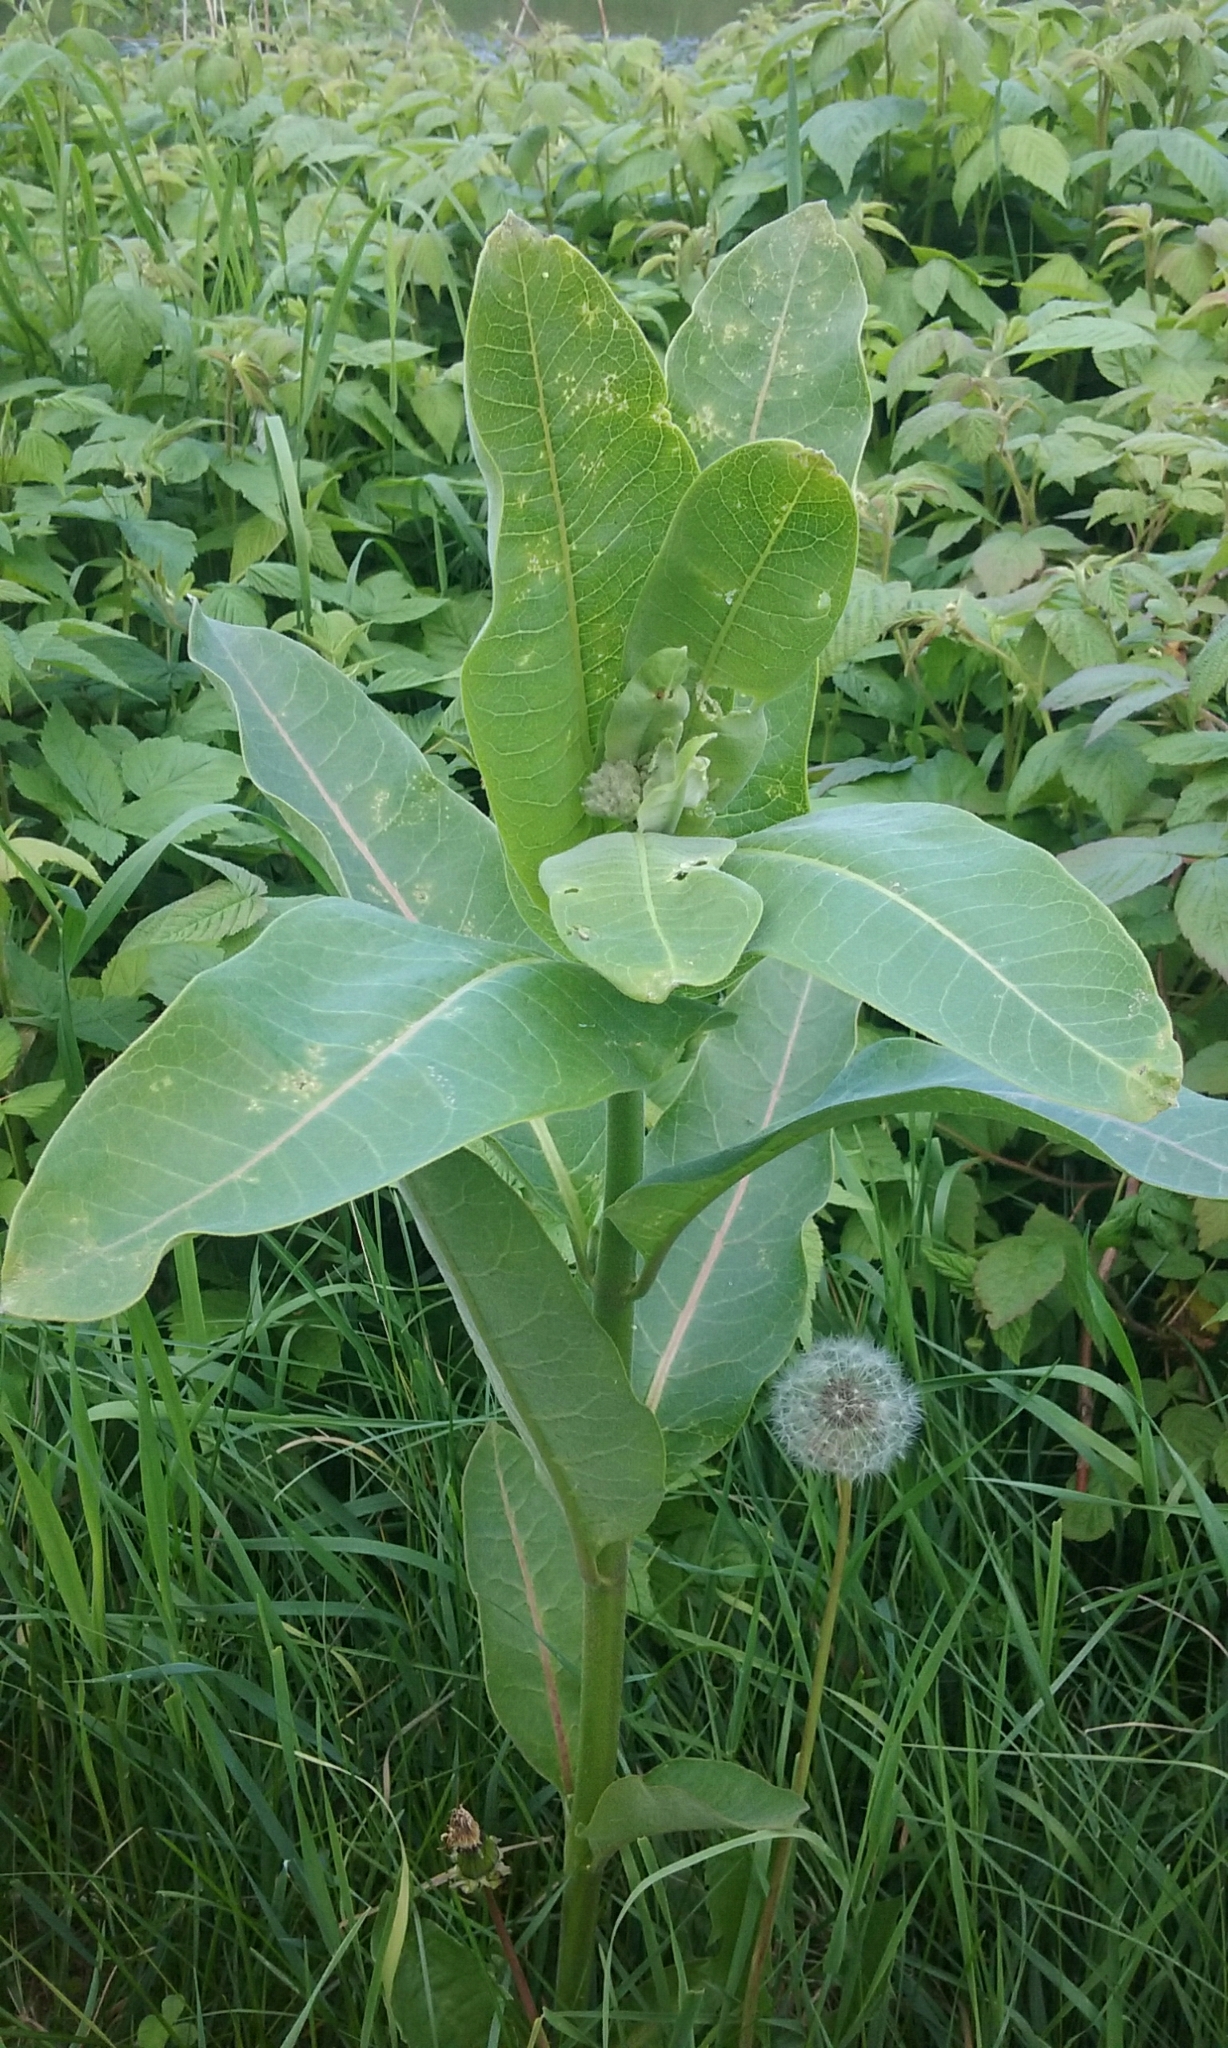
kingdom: Animalia
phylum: Arthropoda
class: Insecta
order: Lepidoptera
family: Nymphalidae
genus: Danaus
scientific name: Danaus plexippus
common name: Monarch
